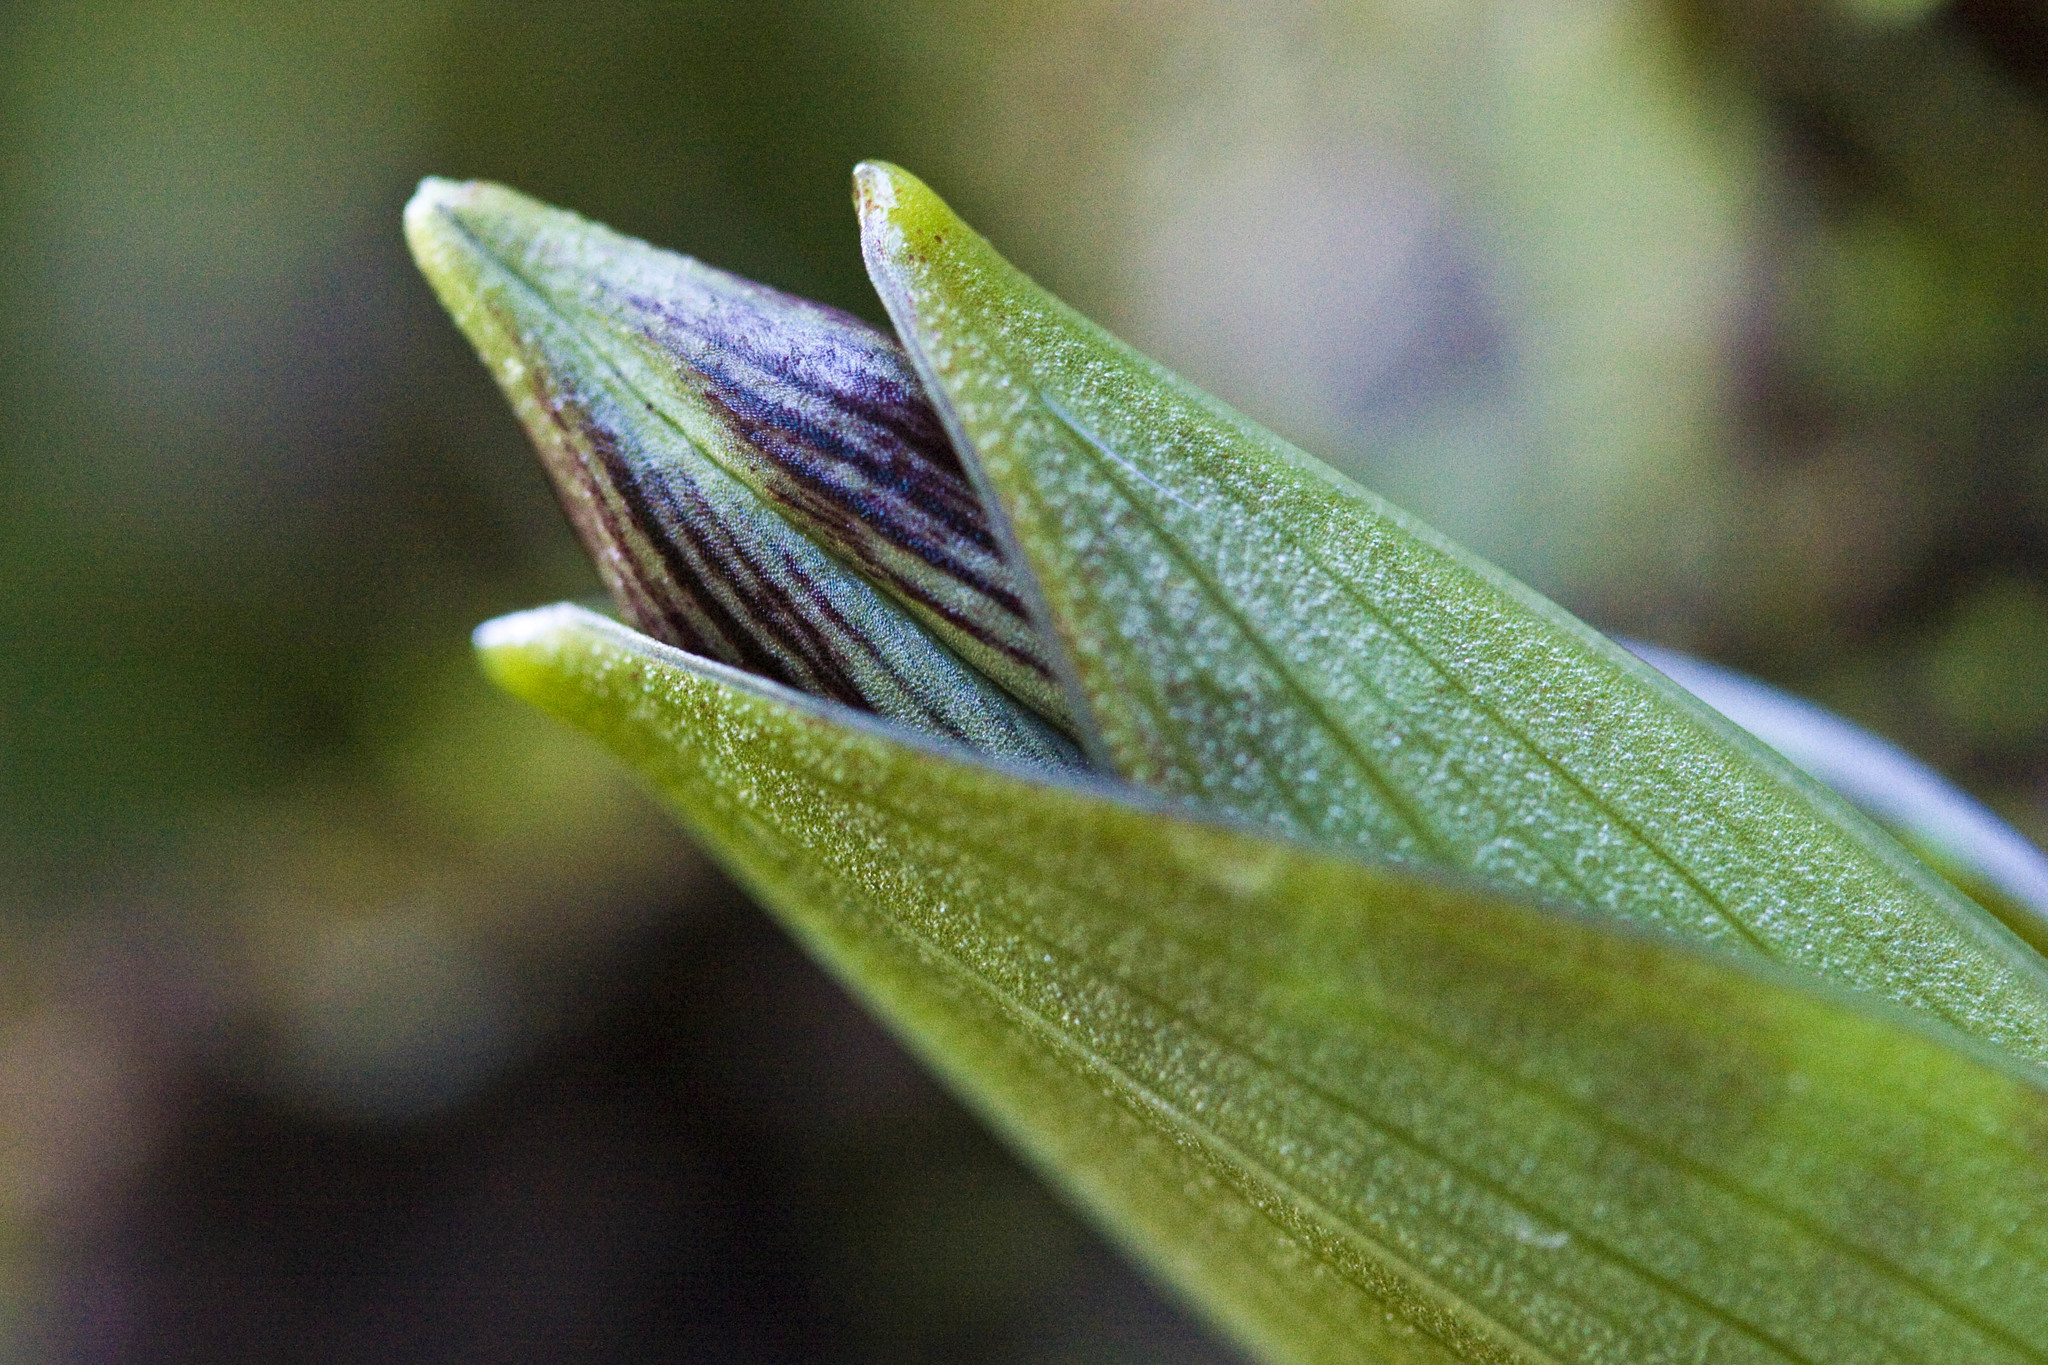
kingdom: Plantae
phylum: Tracheophyta
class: Liliopsida
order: Liliales
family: Liliaceae
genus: Scoliopus
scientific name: Scoliopus bigelovii
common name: Foetid adder's-tongue
